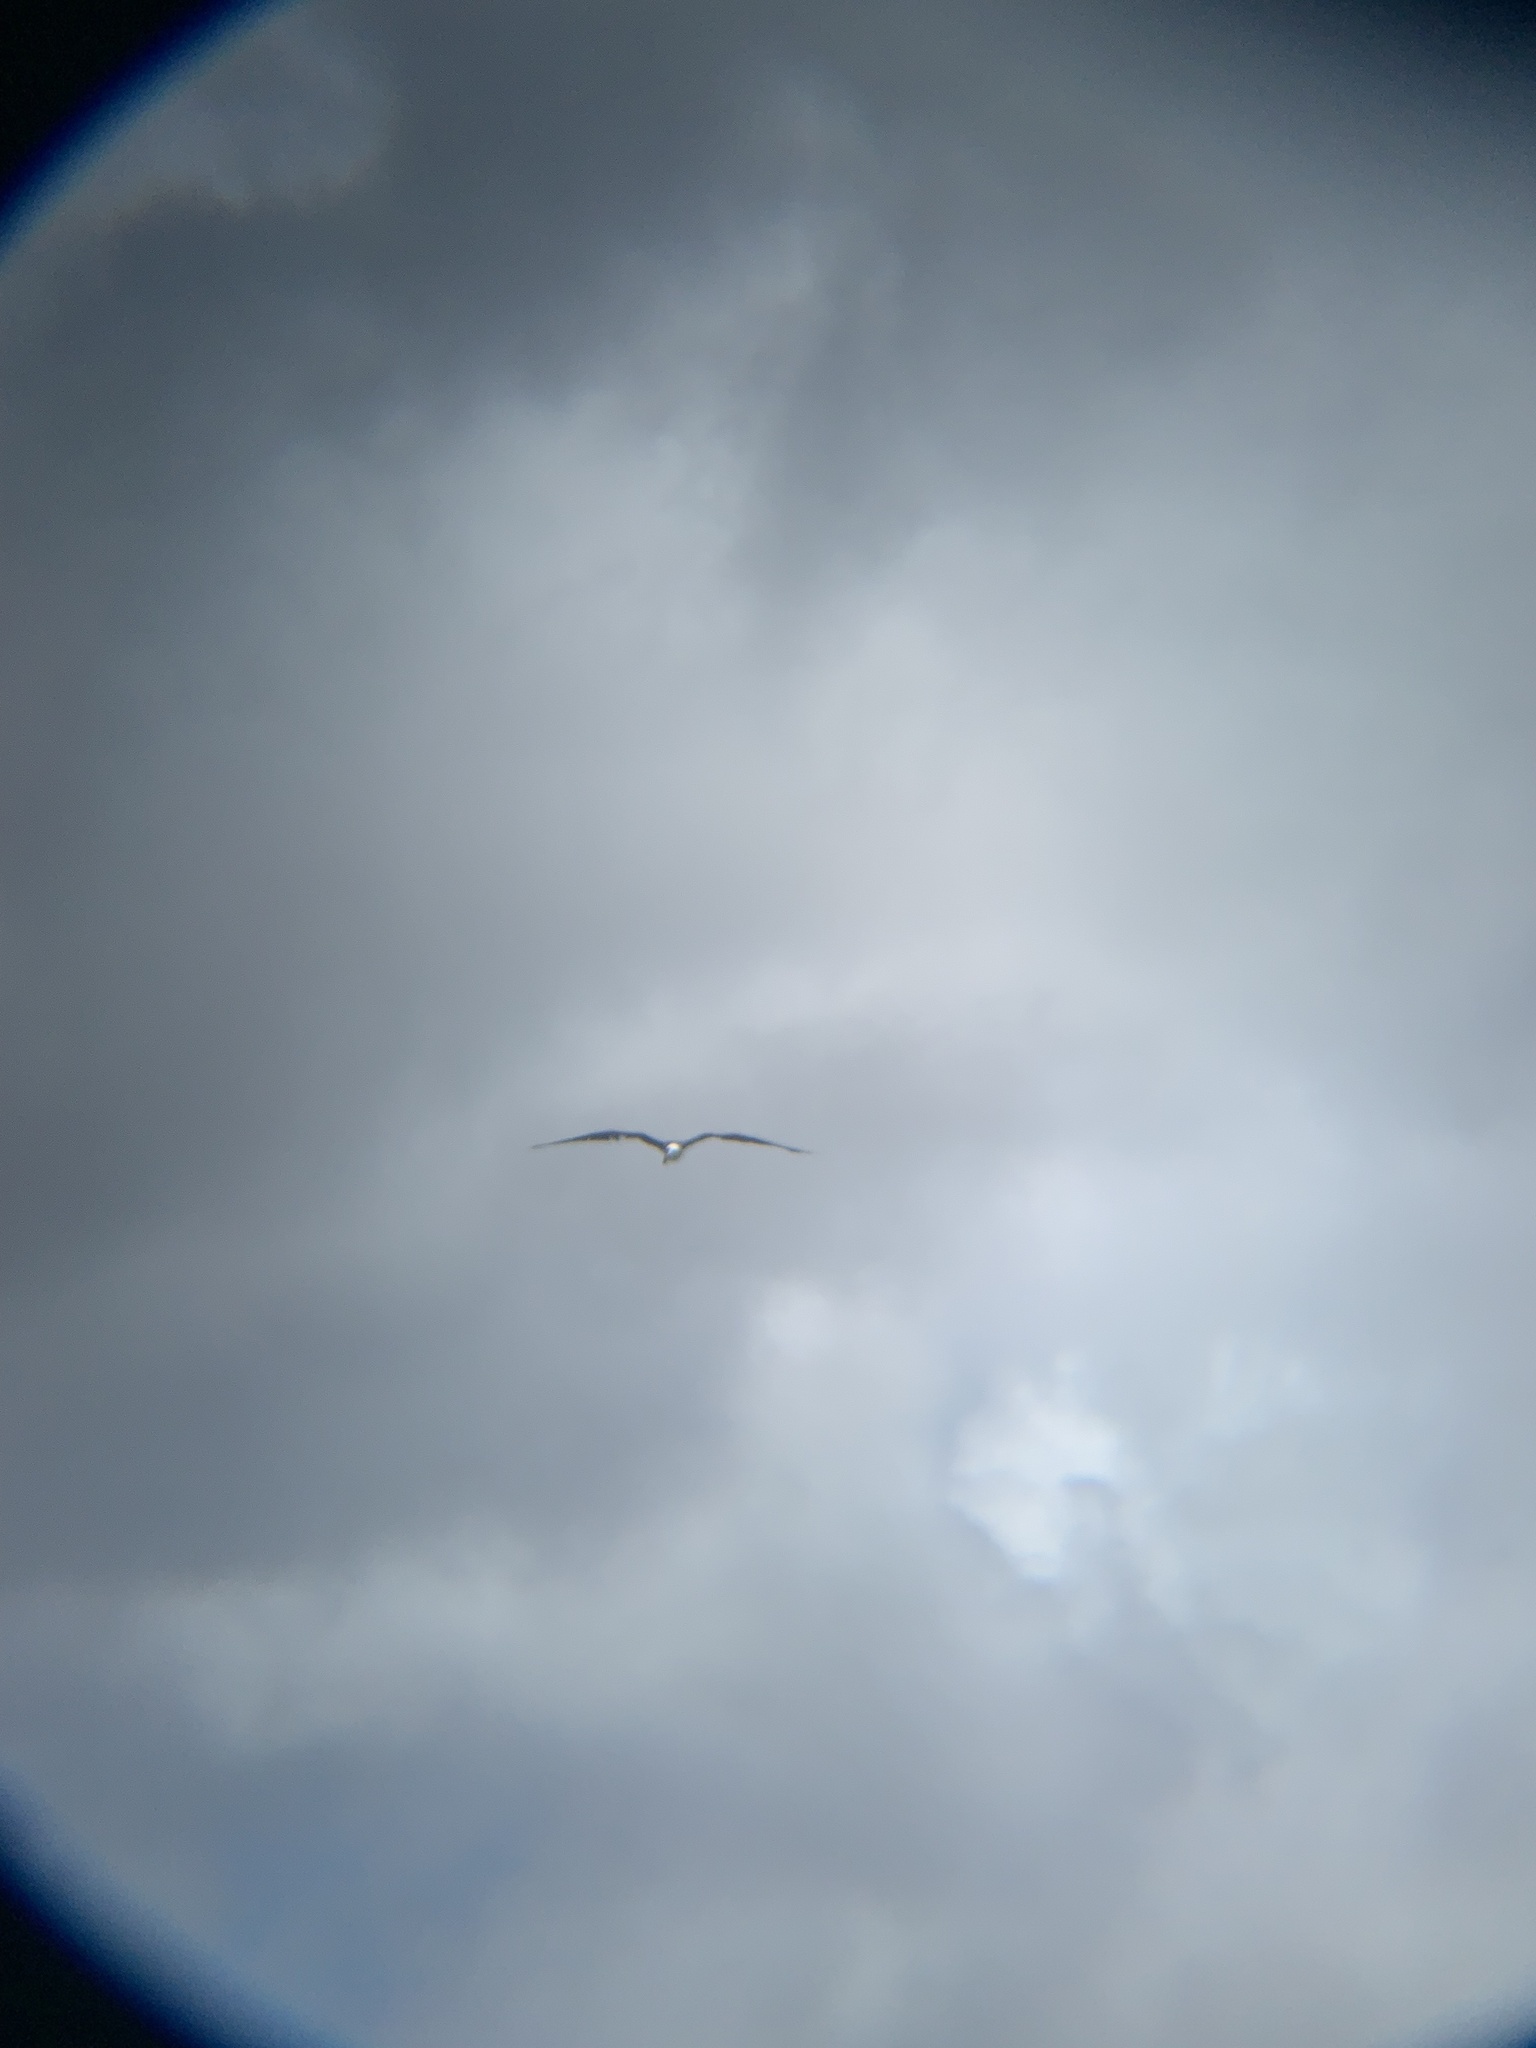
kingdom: Animalia
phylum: Chordata
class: Aves
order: Suliformes
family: Fregatidae
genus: Fregata
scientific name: Fregata magnificens
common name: Magnificent frigatebird
